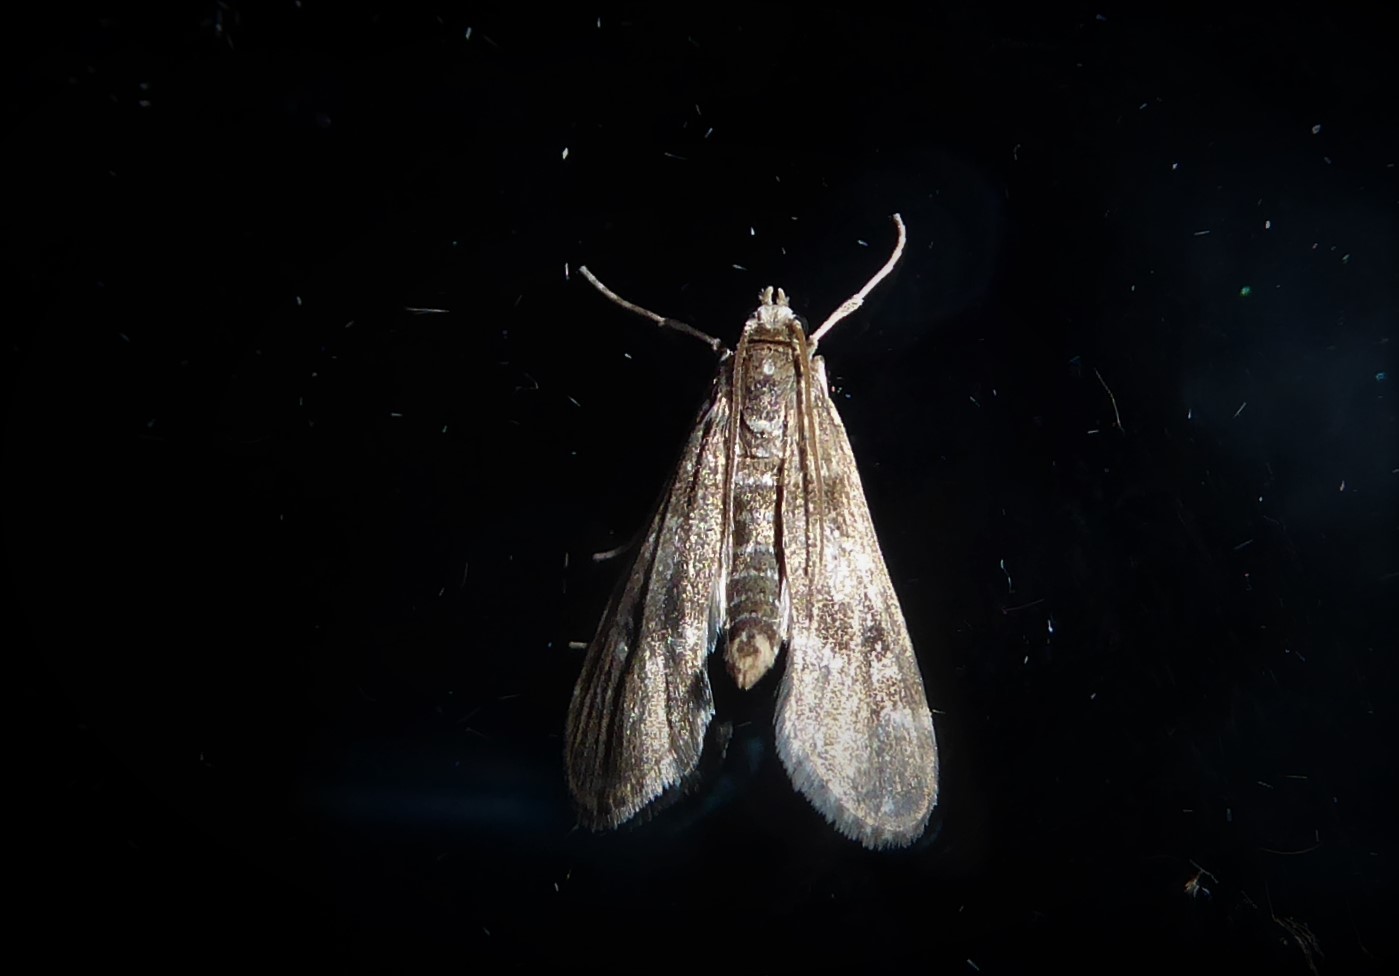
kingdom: Animalia
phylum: Arthropoda
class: Insecta
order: Lepidoptera
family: Crambidae
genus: Hygraula
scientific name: Hygraula nitens
